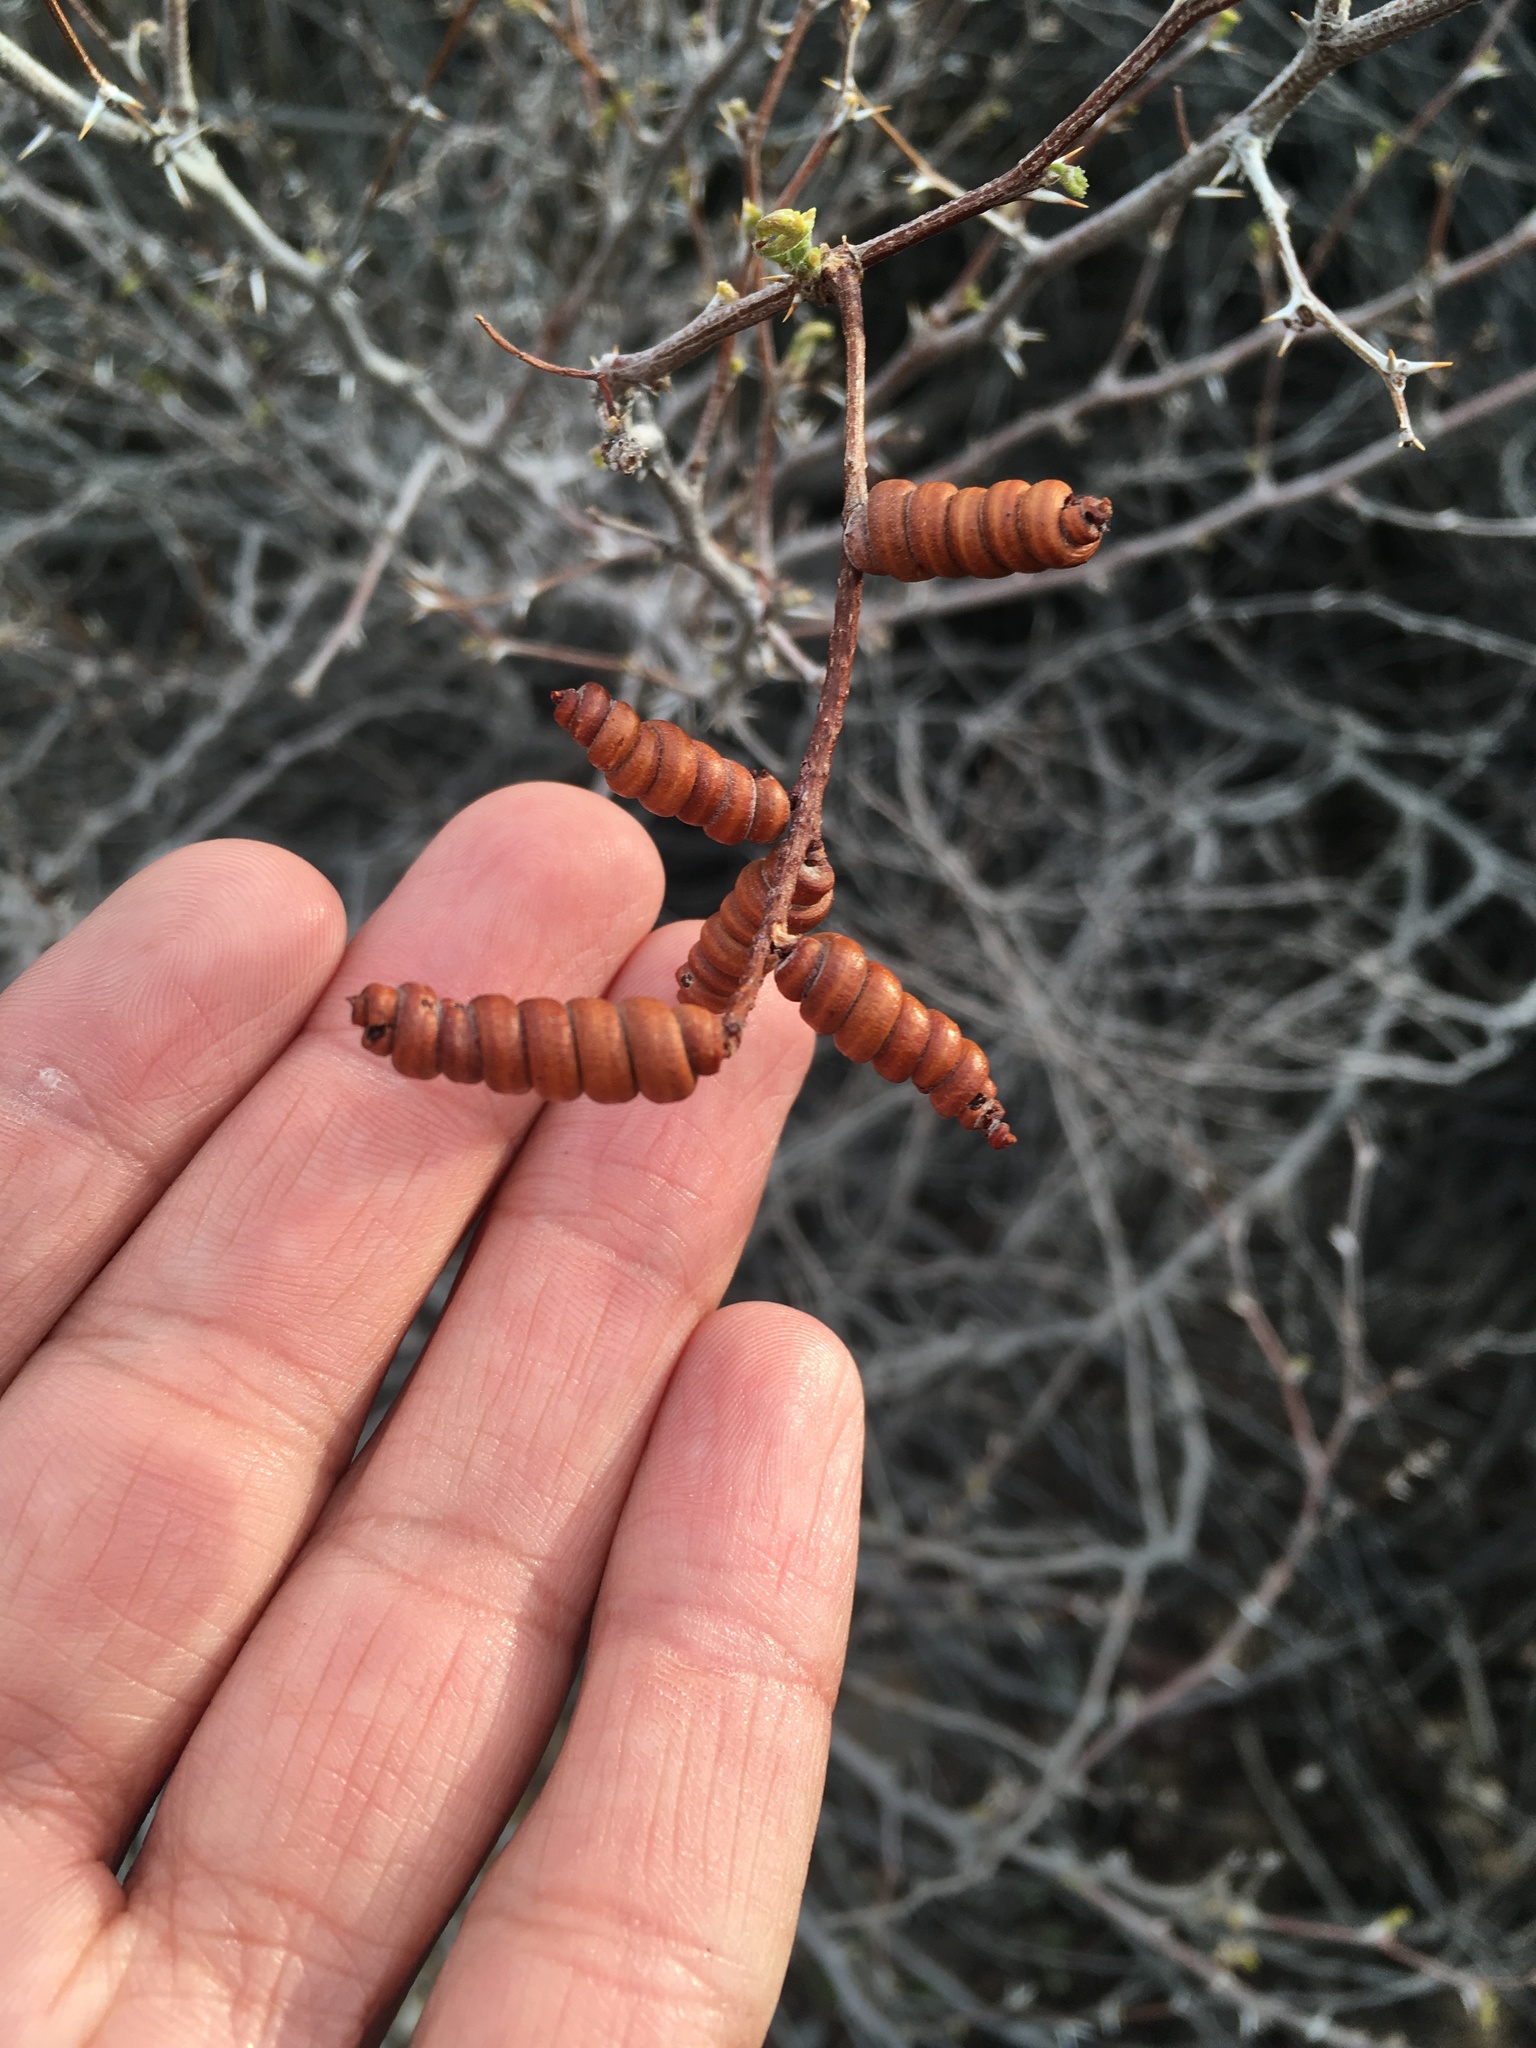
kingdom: Plantae
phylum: Tracheophyta
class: Magnoliopsida
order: Fabales
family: Fabaceae
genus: Prosopis
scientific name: Prosopis pubescens
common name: Screw-bean
